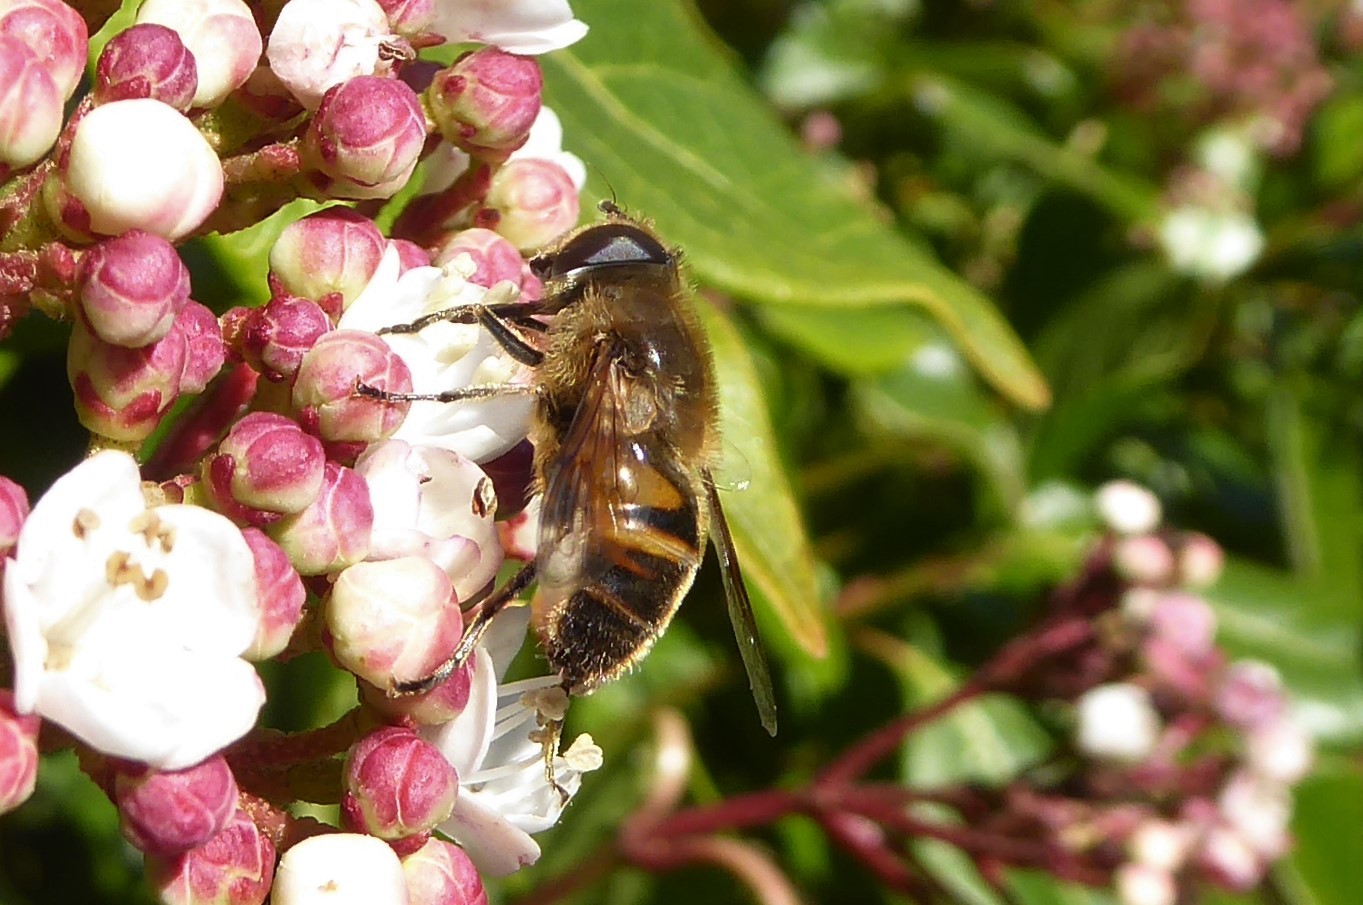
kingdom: Animalia
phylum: Arthropoda
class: Insecta
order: Diptera
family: Syrphidae
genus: Eristalis
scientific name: Eristalis tenax
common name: Drone fly
